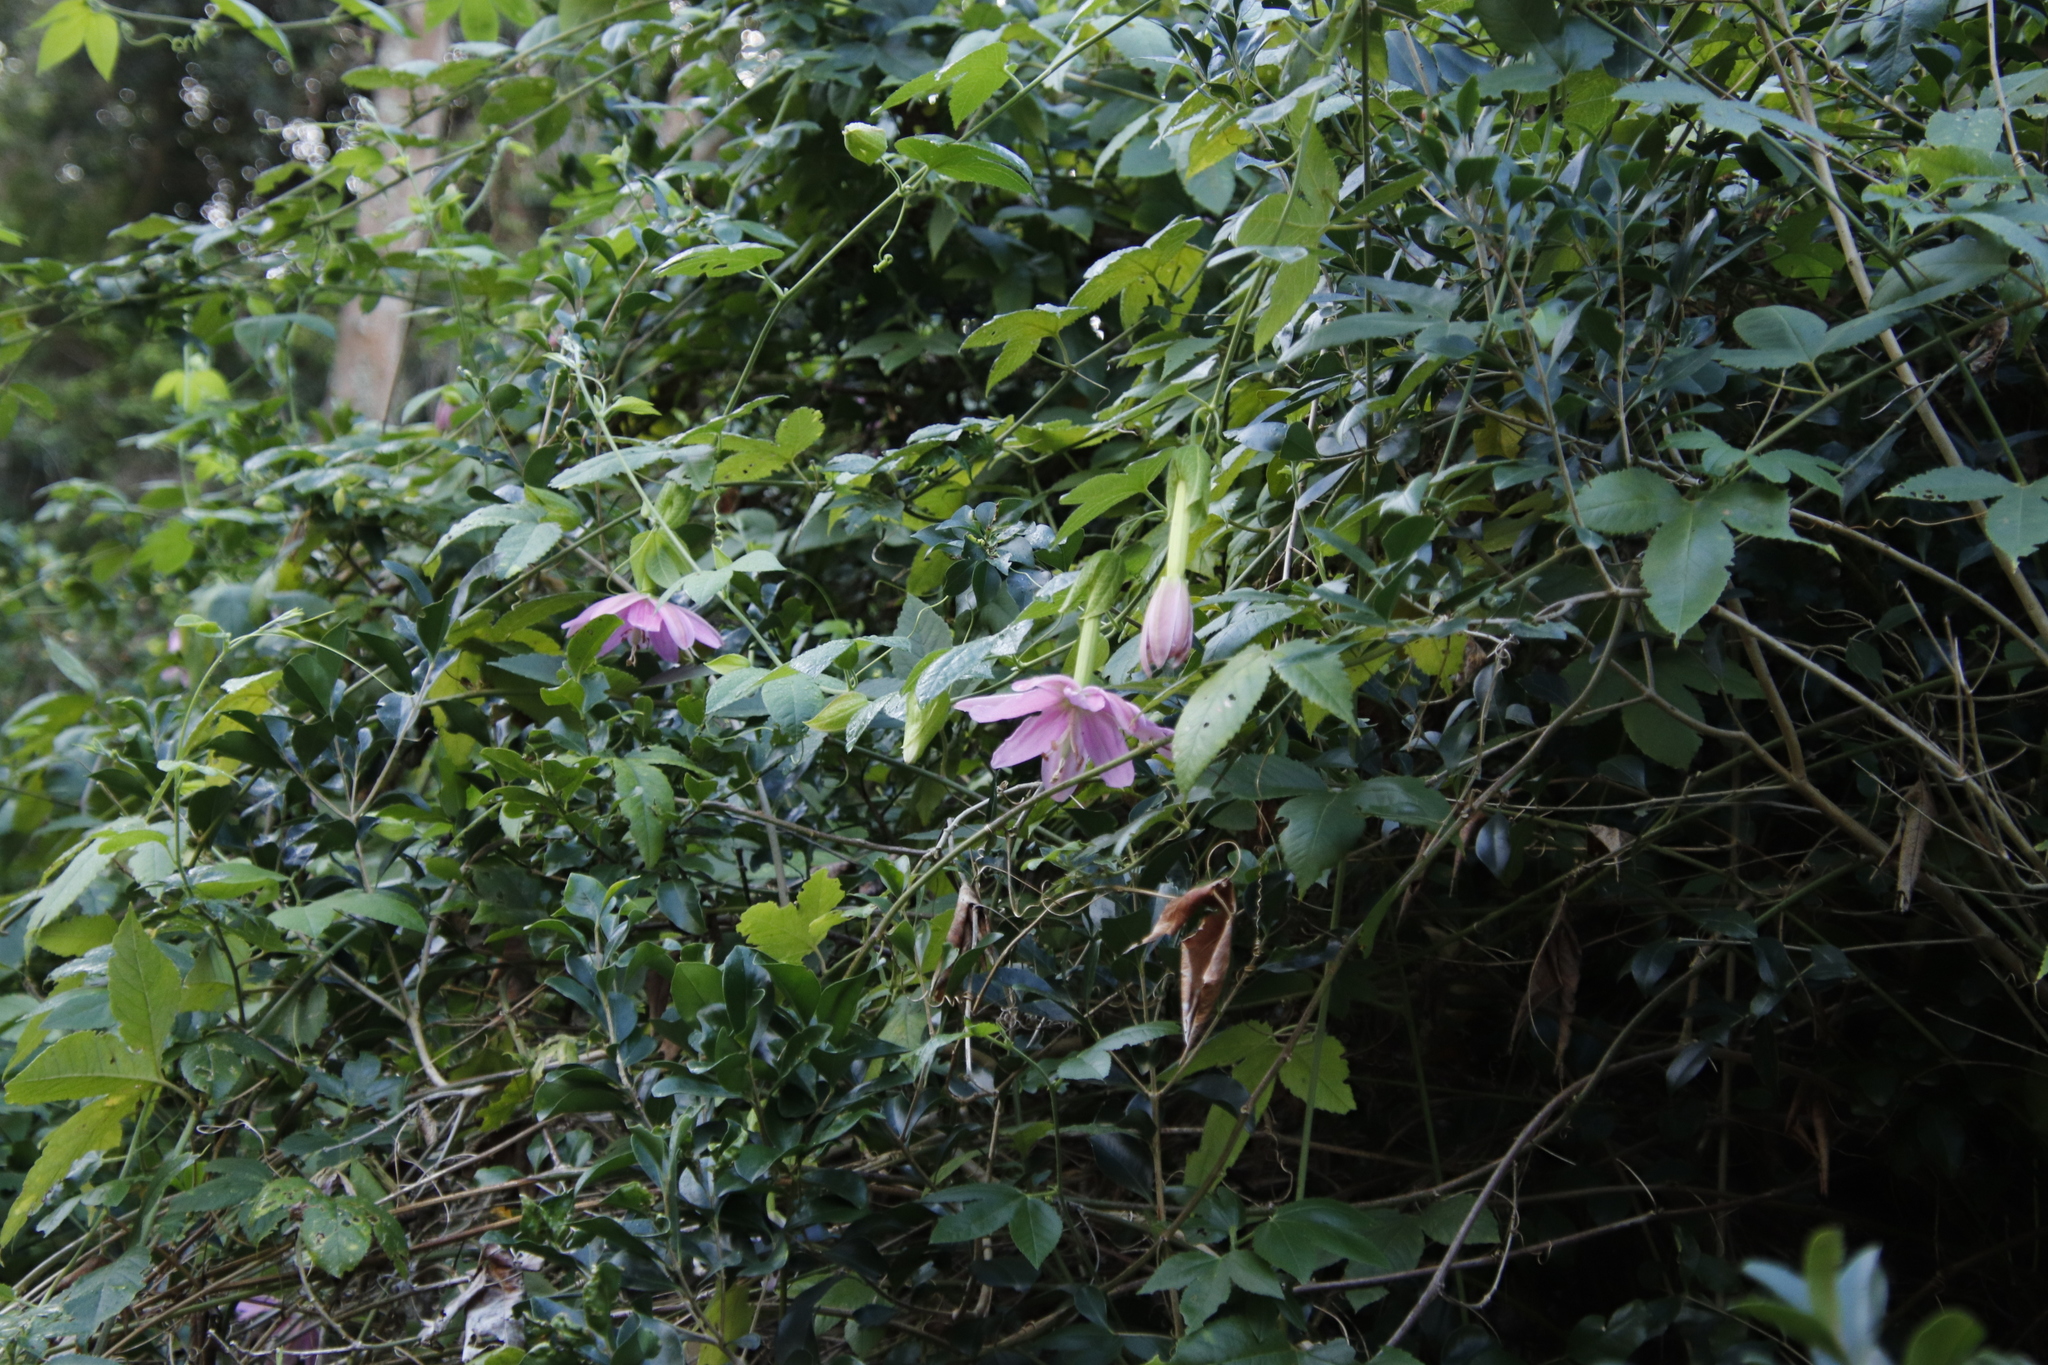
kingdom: Plantae
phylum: Tracheophyta
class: Magnoliopsida
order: Malpighiales
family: Passifloraceae
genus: Passiflora
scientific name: Passiflora tarminiana
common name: Banana poka
